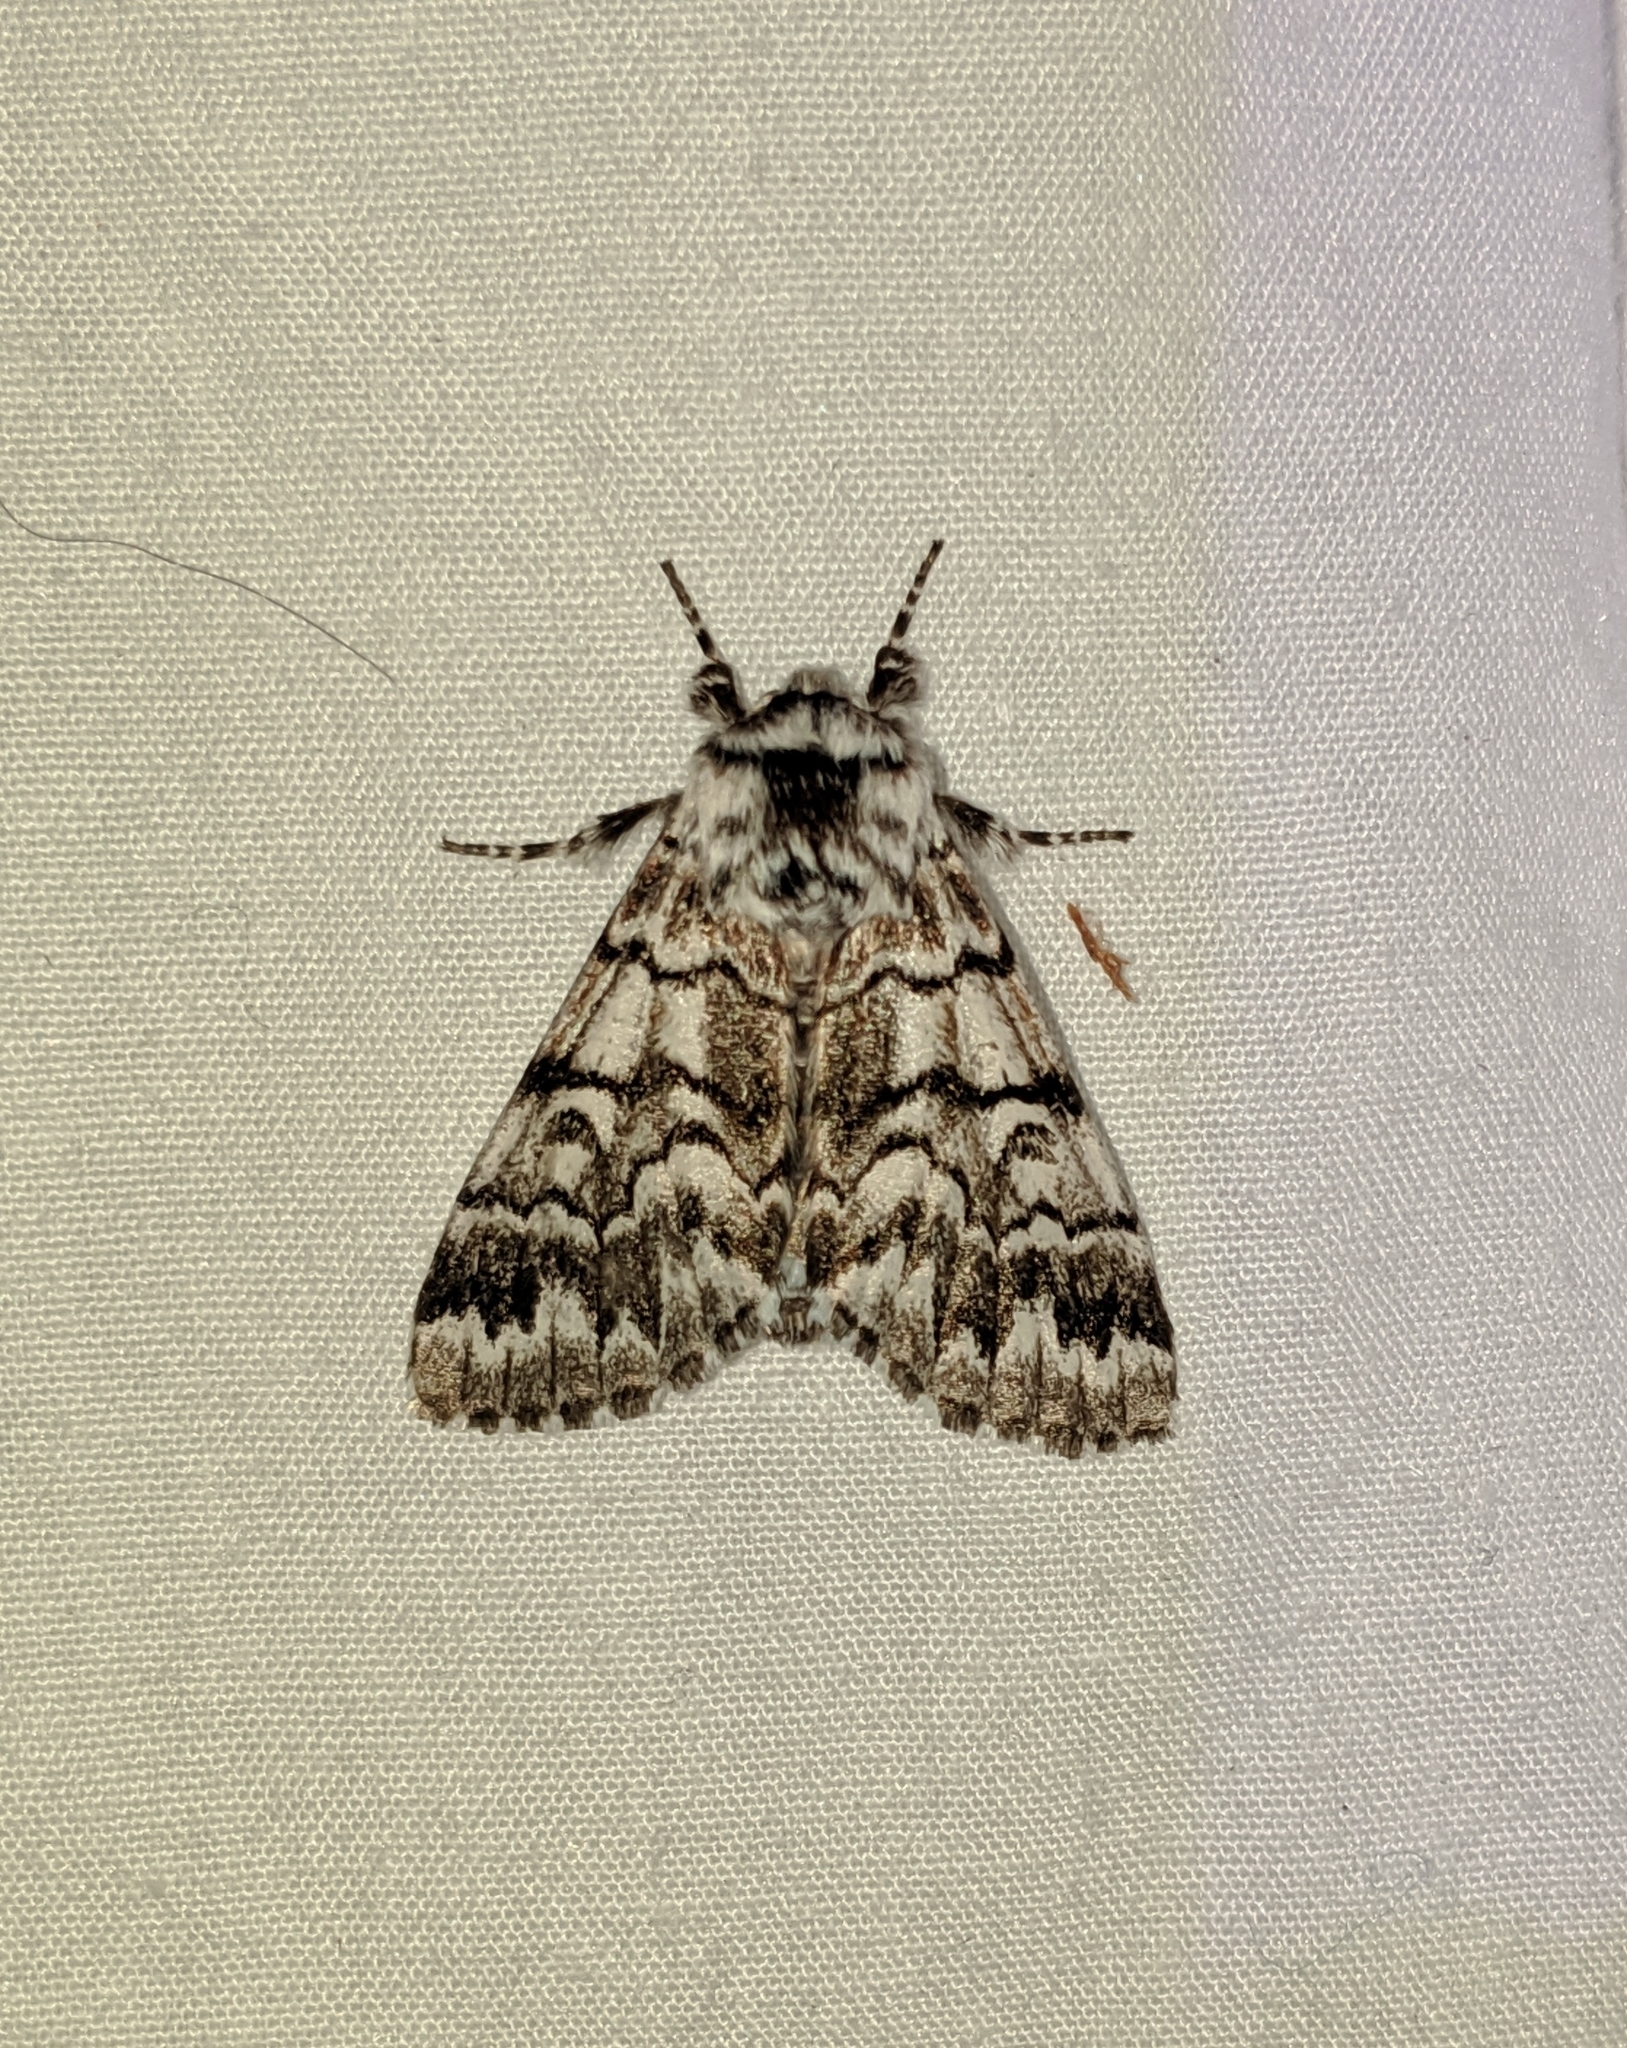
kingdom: Animalia
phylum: Arthropoda
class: Insecta
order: Lepidoptera
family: Noctuidae
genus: Panthea
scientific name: Panthea virginarius
